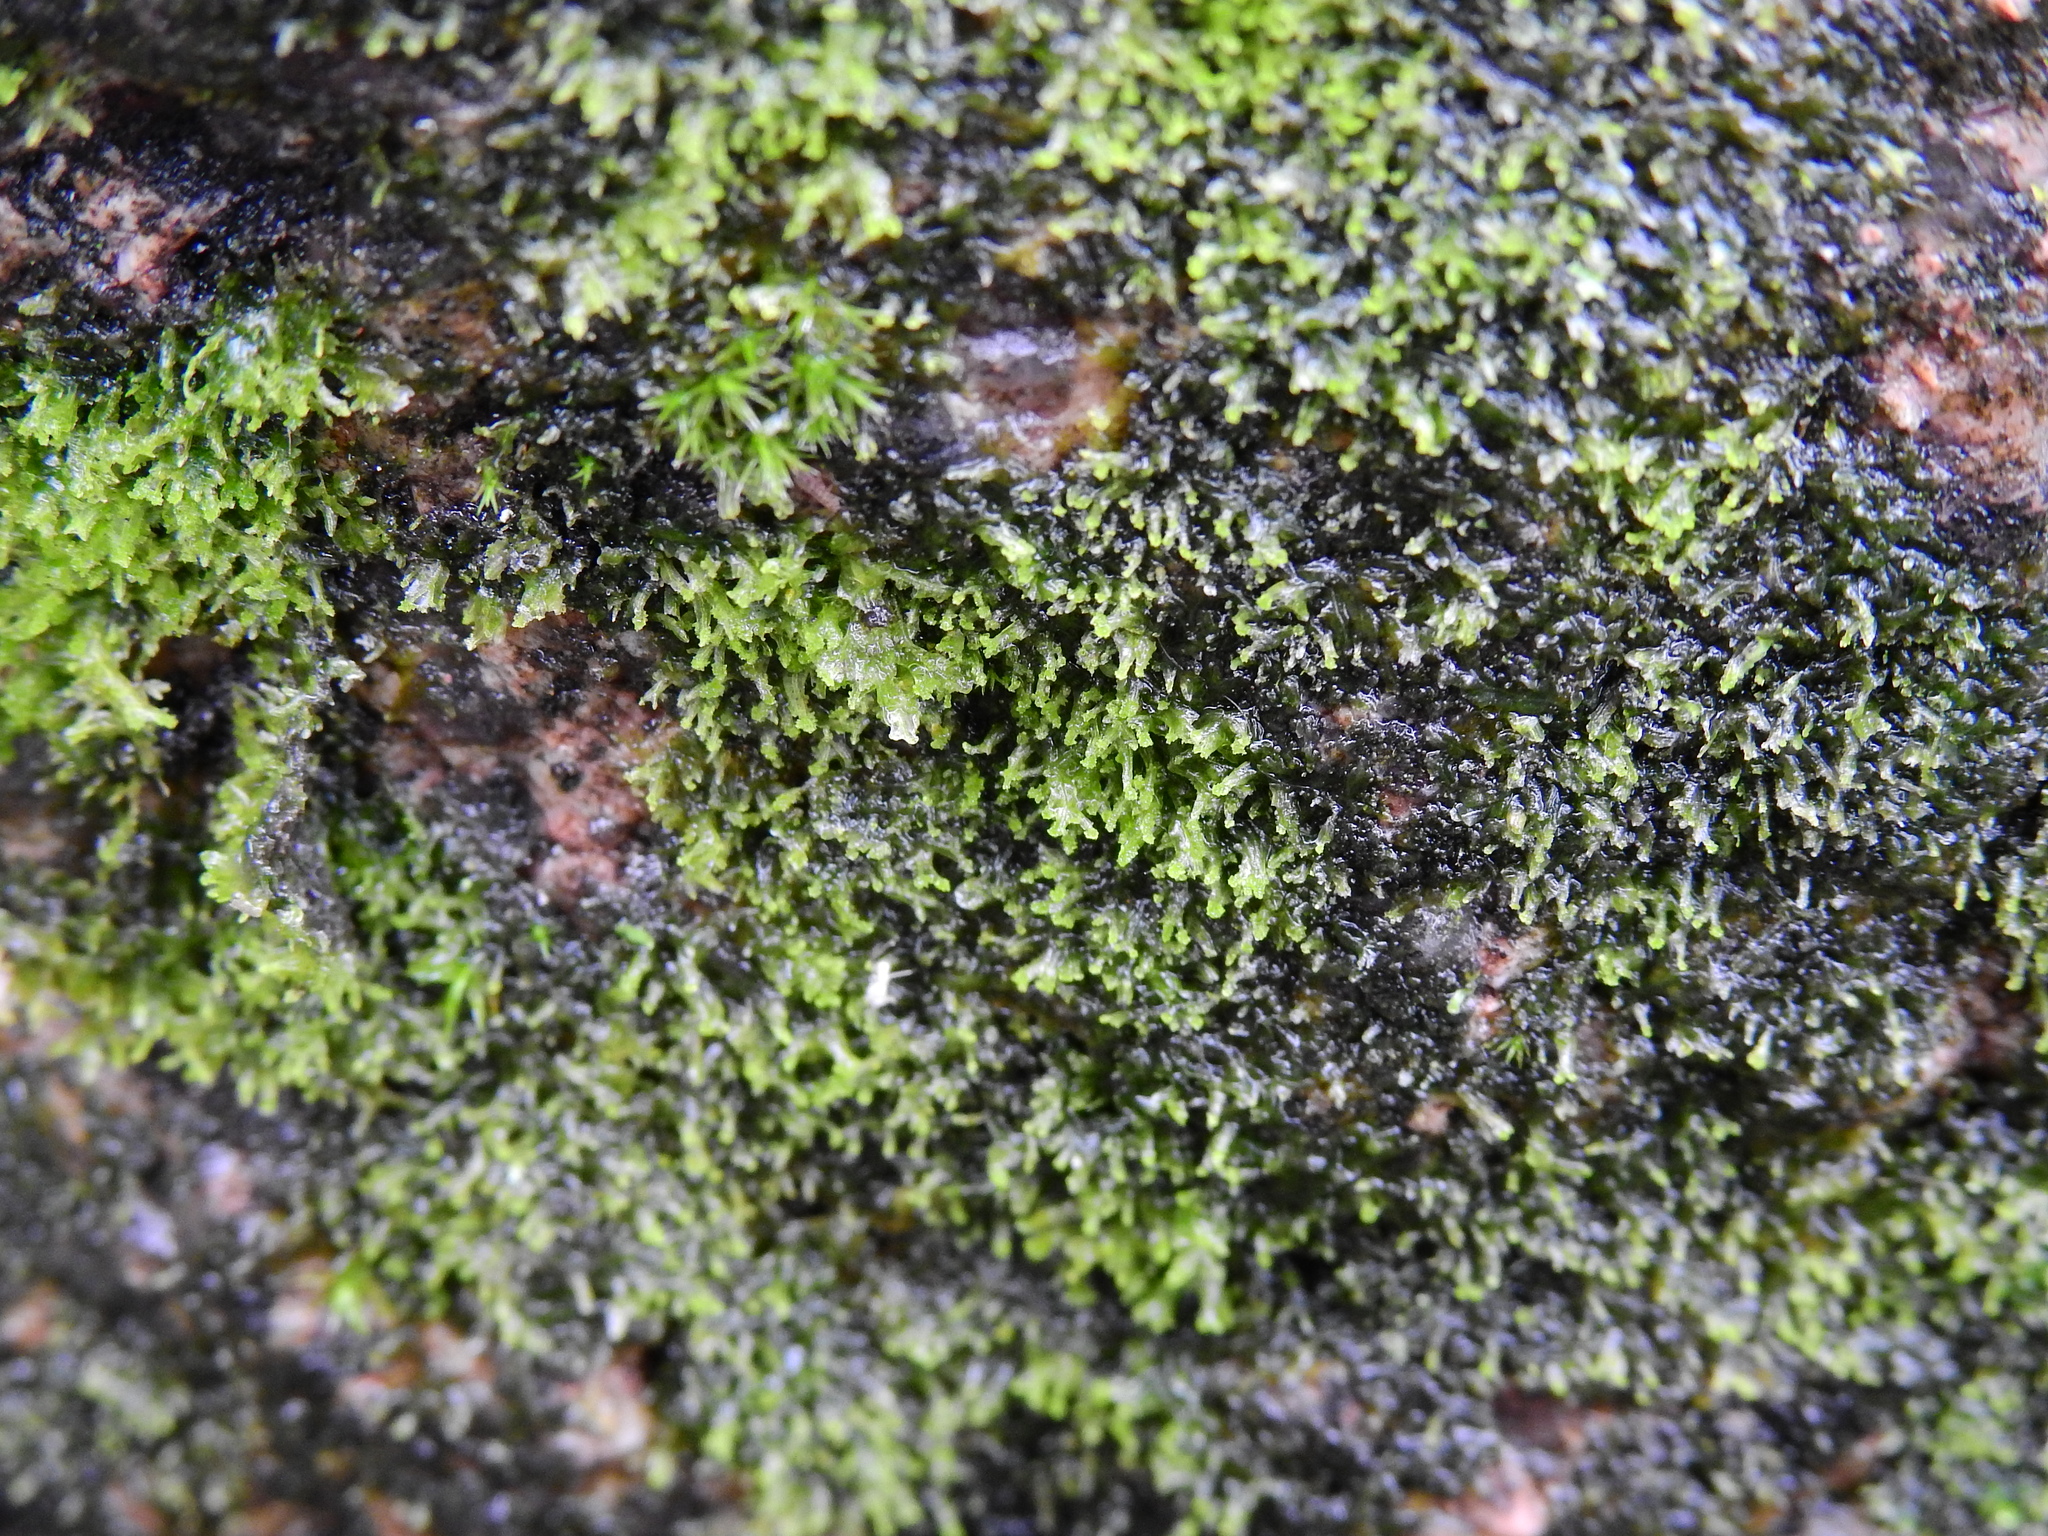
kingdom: Plantae
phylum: Marchantiophyta
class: Jungermanniopsida
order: Metzgeriales
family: Metzgeriaceae
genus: Metzgeria
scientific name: Metzgeria violacea
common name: Blueish veilwort
